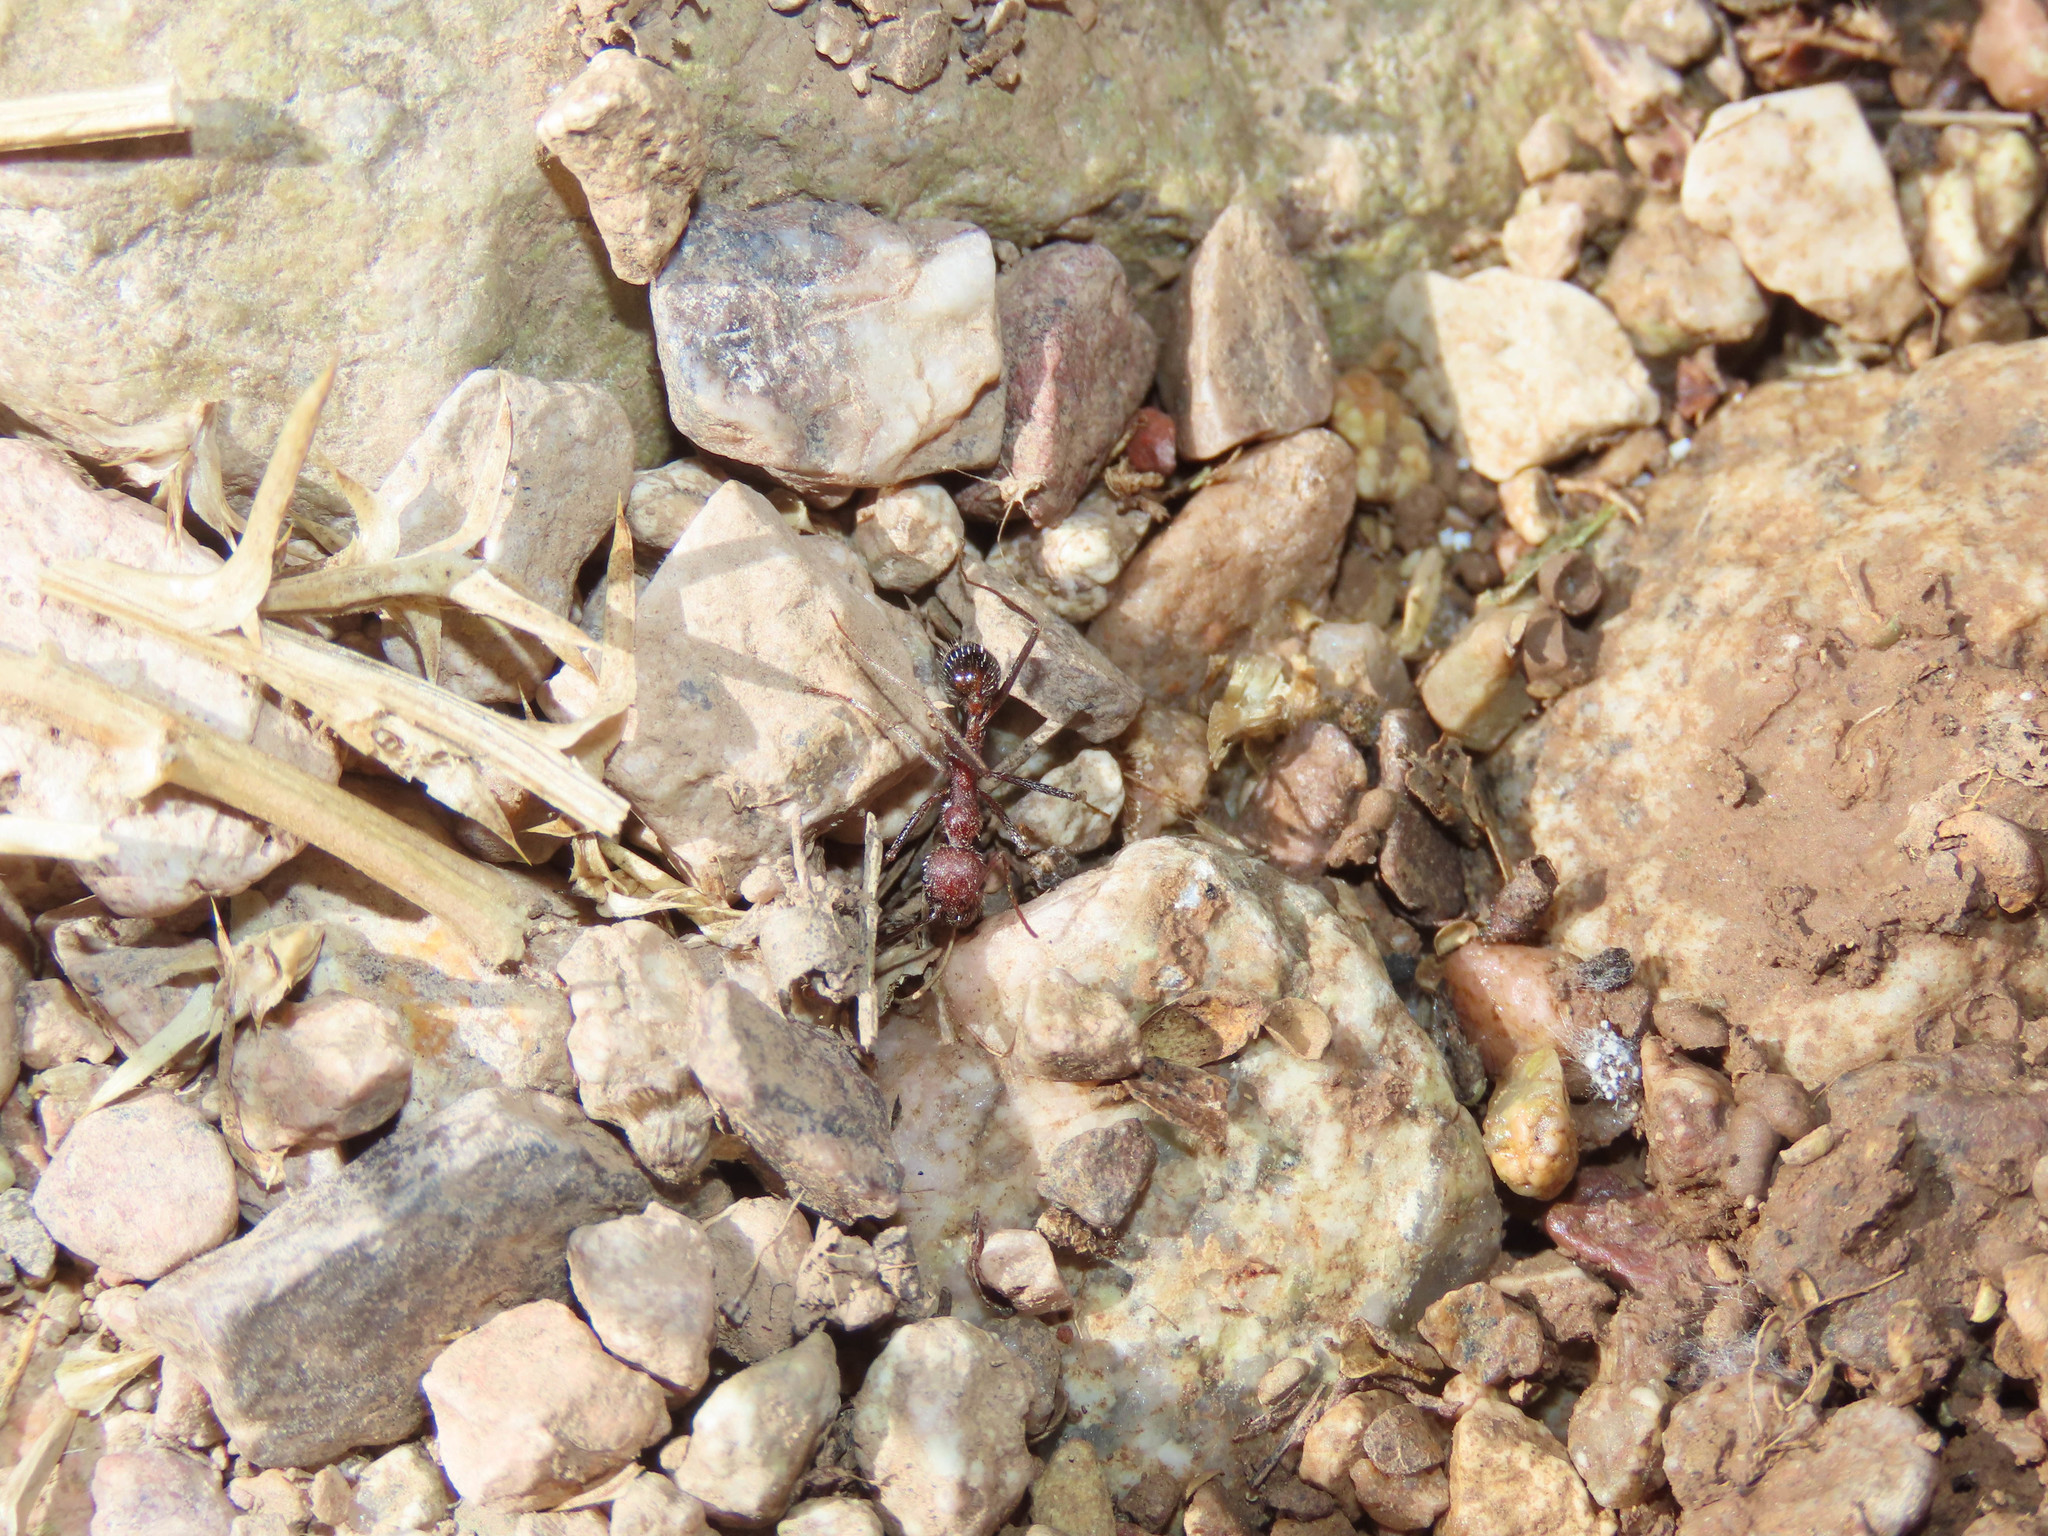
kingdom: Animalia
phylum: Arthropoda
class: Insecta
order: Hymenoptera
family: Formicidae
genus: Novomessor
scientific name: Novomessor albisetosa
